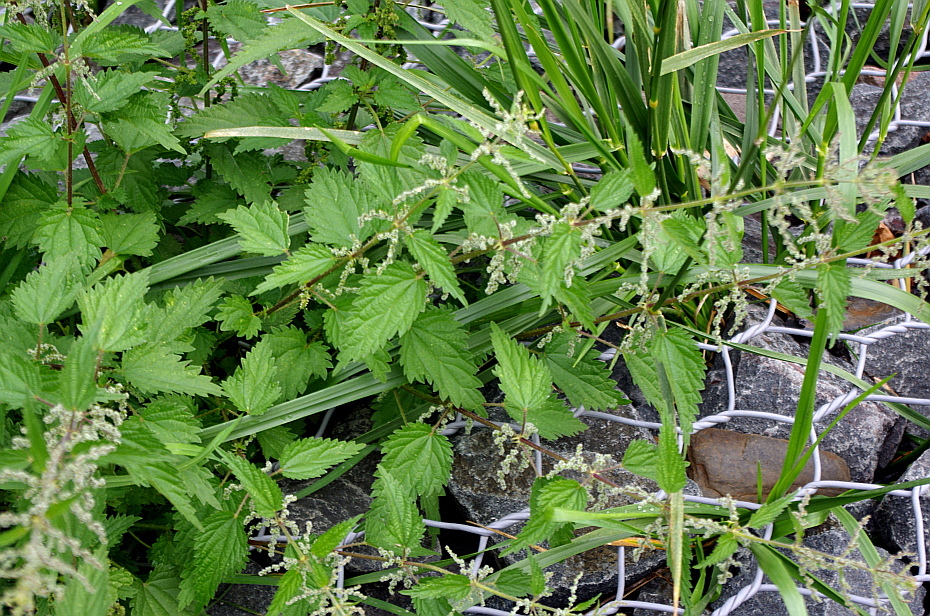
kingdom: Plantae
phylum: Tracheophyta
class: Magnoliopsida
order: Rosales
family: Urticaceae
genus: Urtica
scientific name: Urtica dioica
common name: Common nettle
